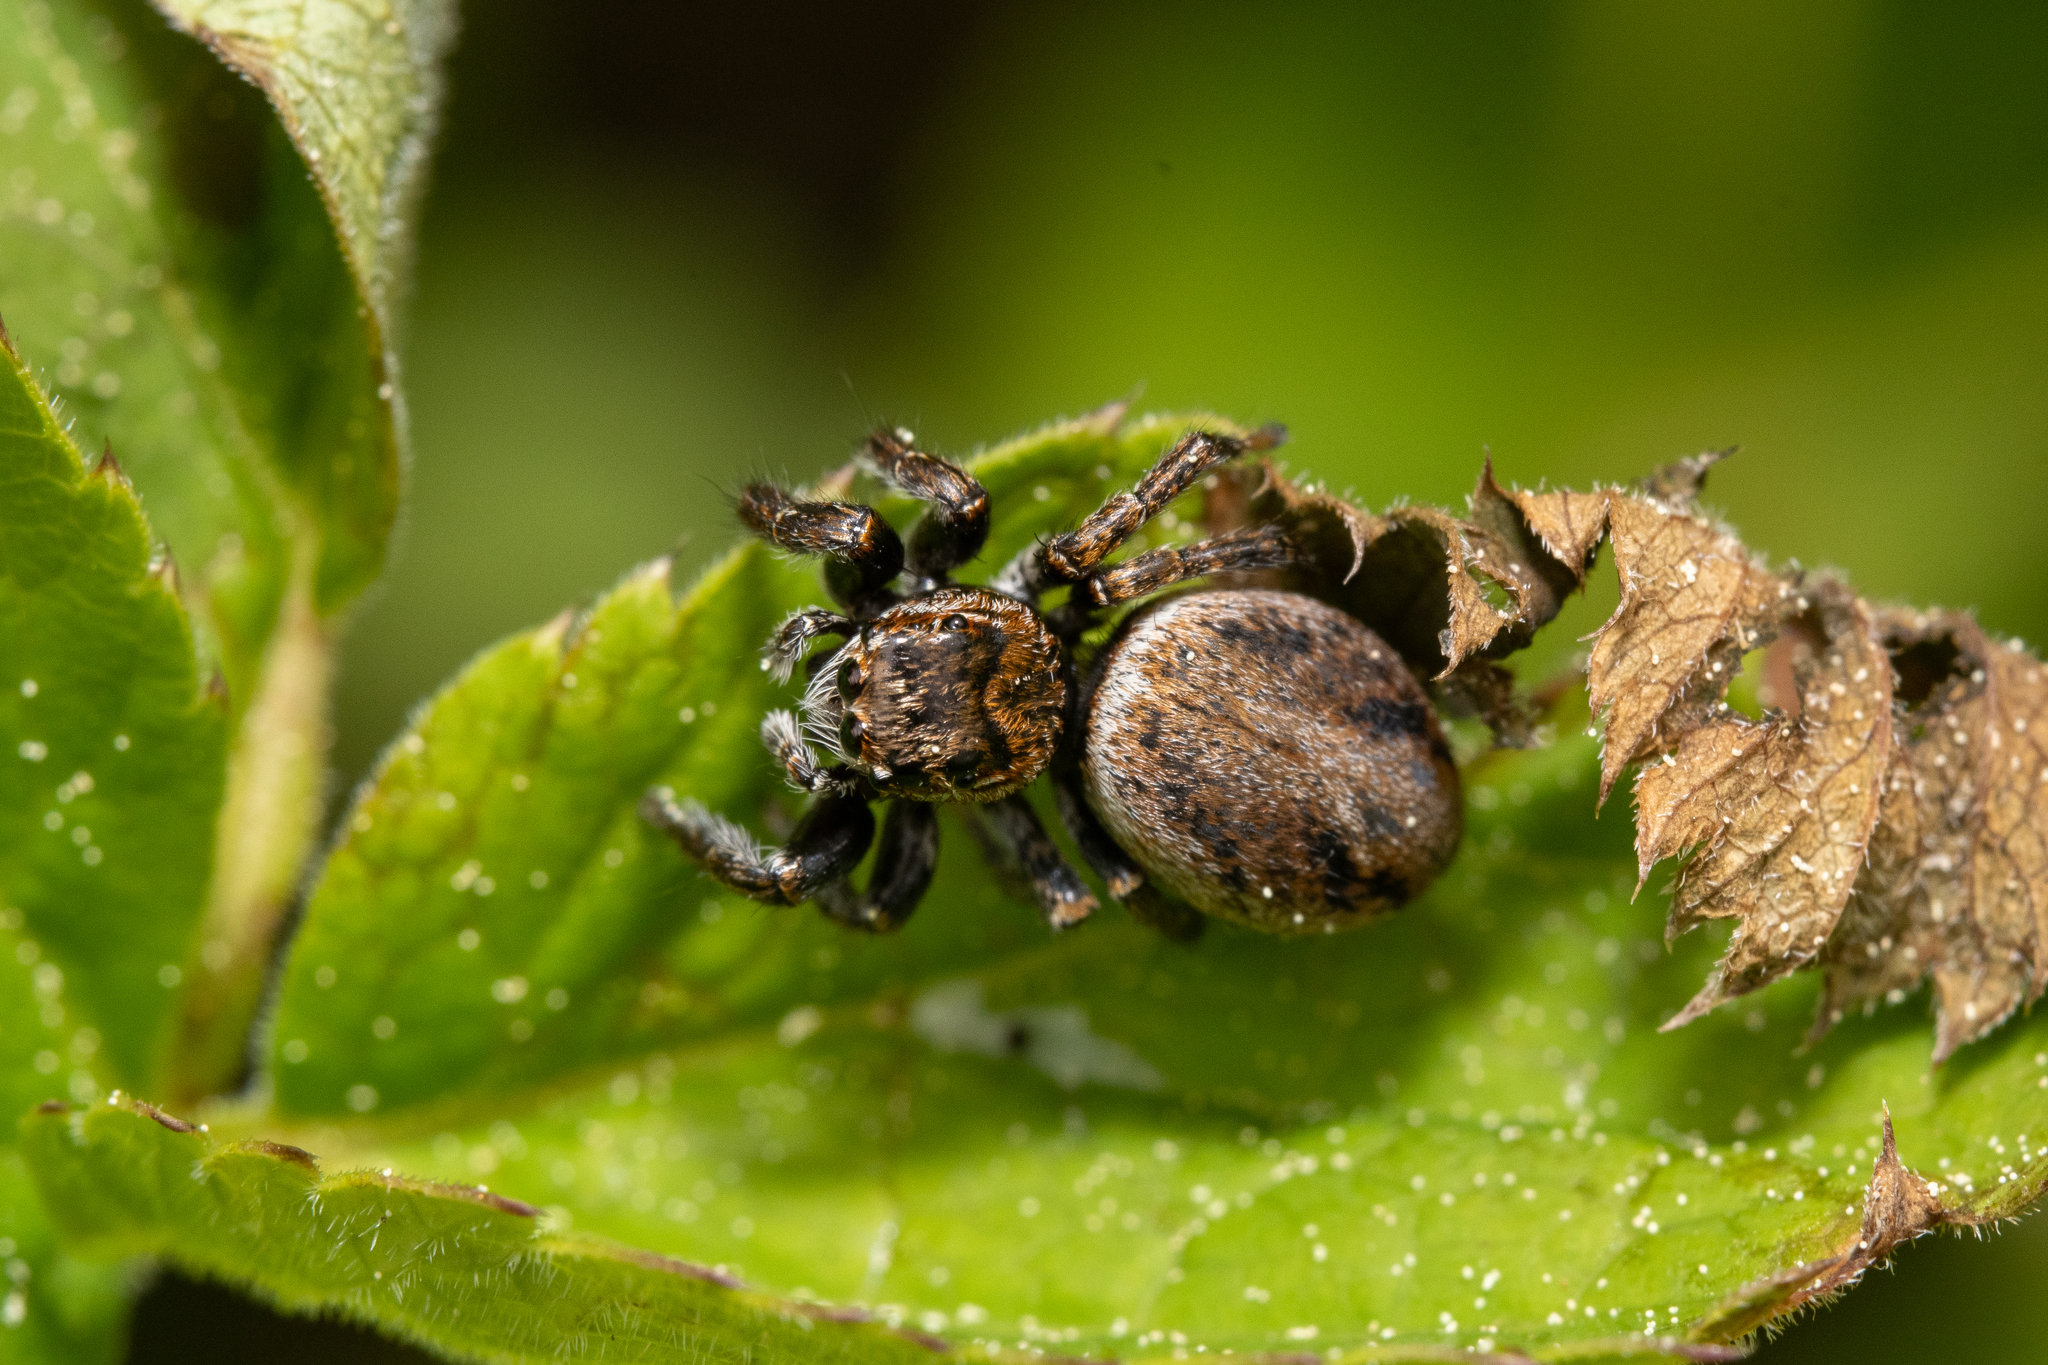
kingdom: Animalia
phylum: Arthropoda
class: Arachnida
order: Araneae
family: Salticidae
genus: Evarcha
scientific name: Evarcha arcuata
